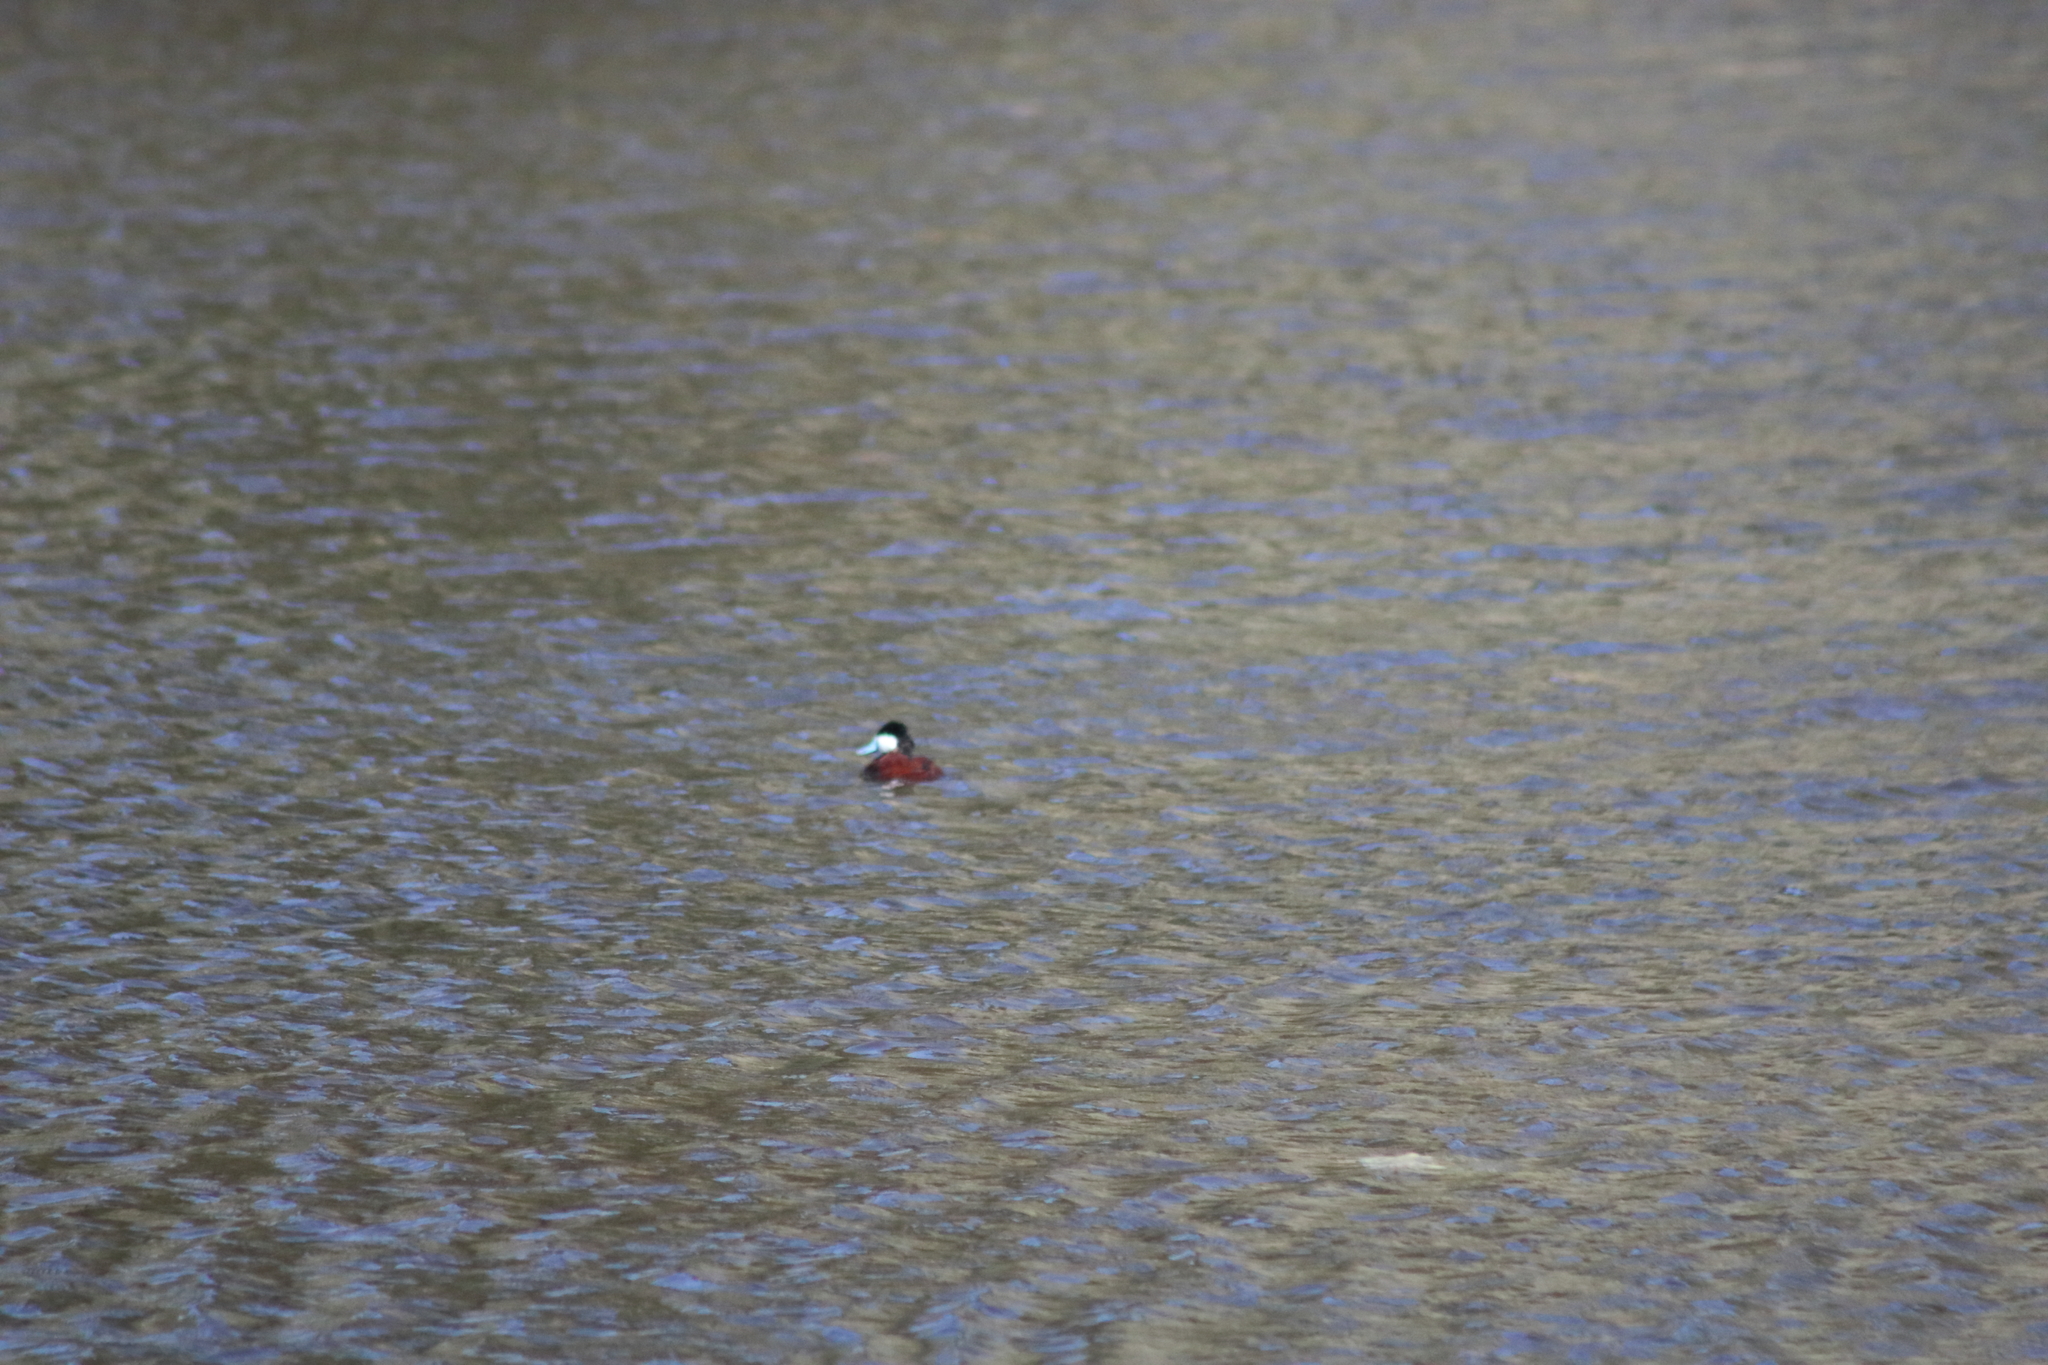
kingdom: Animalia
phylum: Chordata
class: Aves
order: Anseriformes
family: Anatidae
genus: Oxyura
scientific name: Oxyura jamaicensis
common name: Ruddy duck
